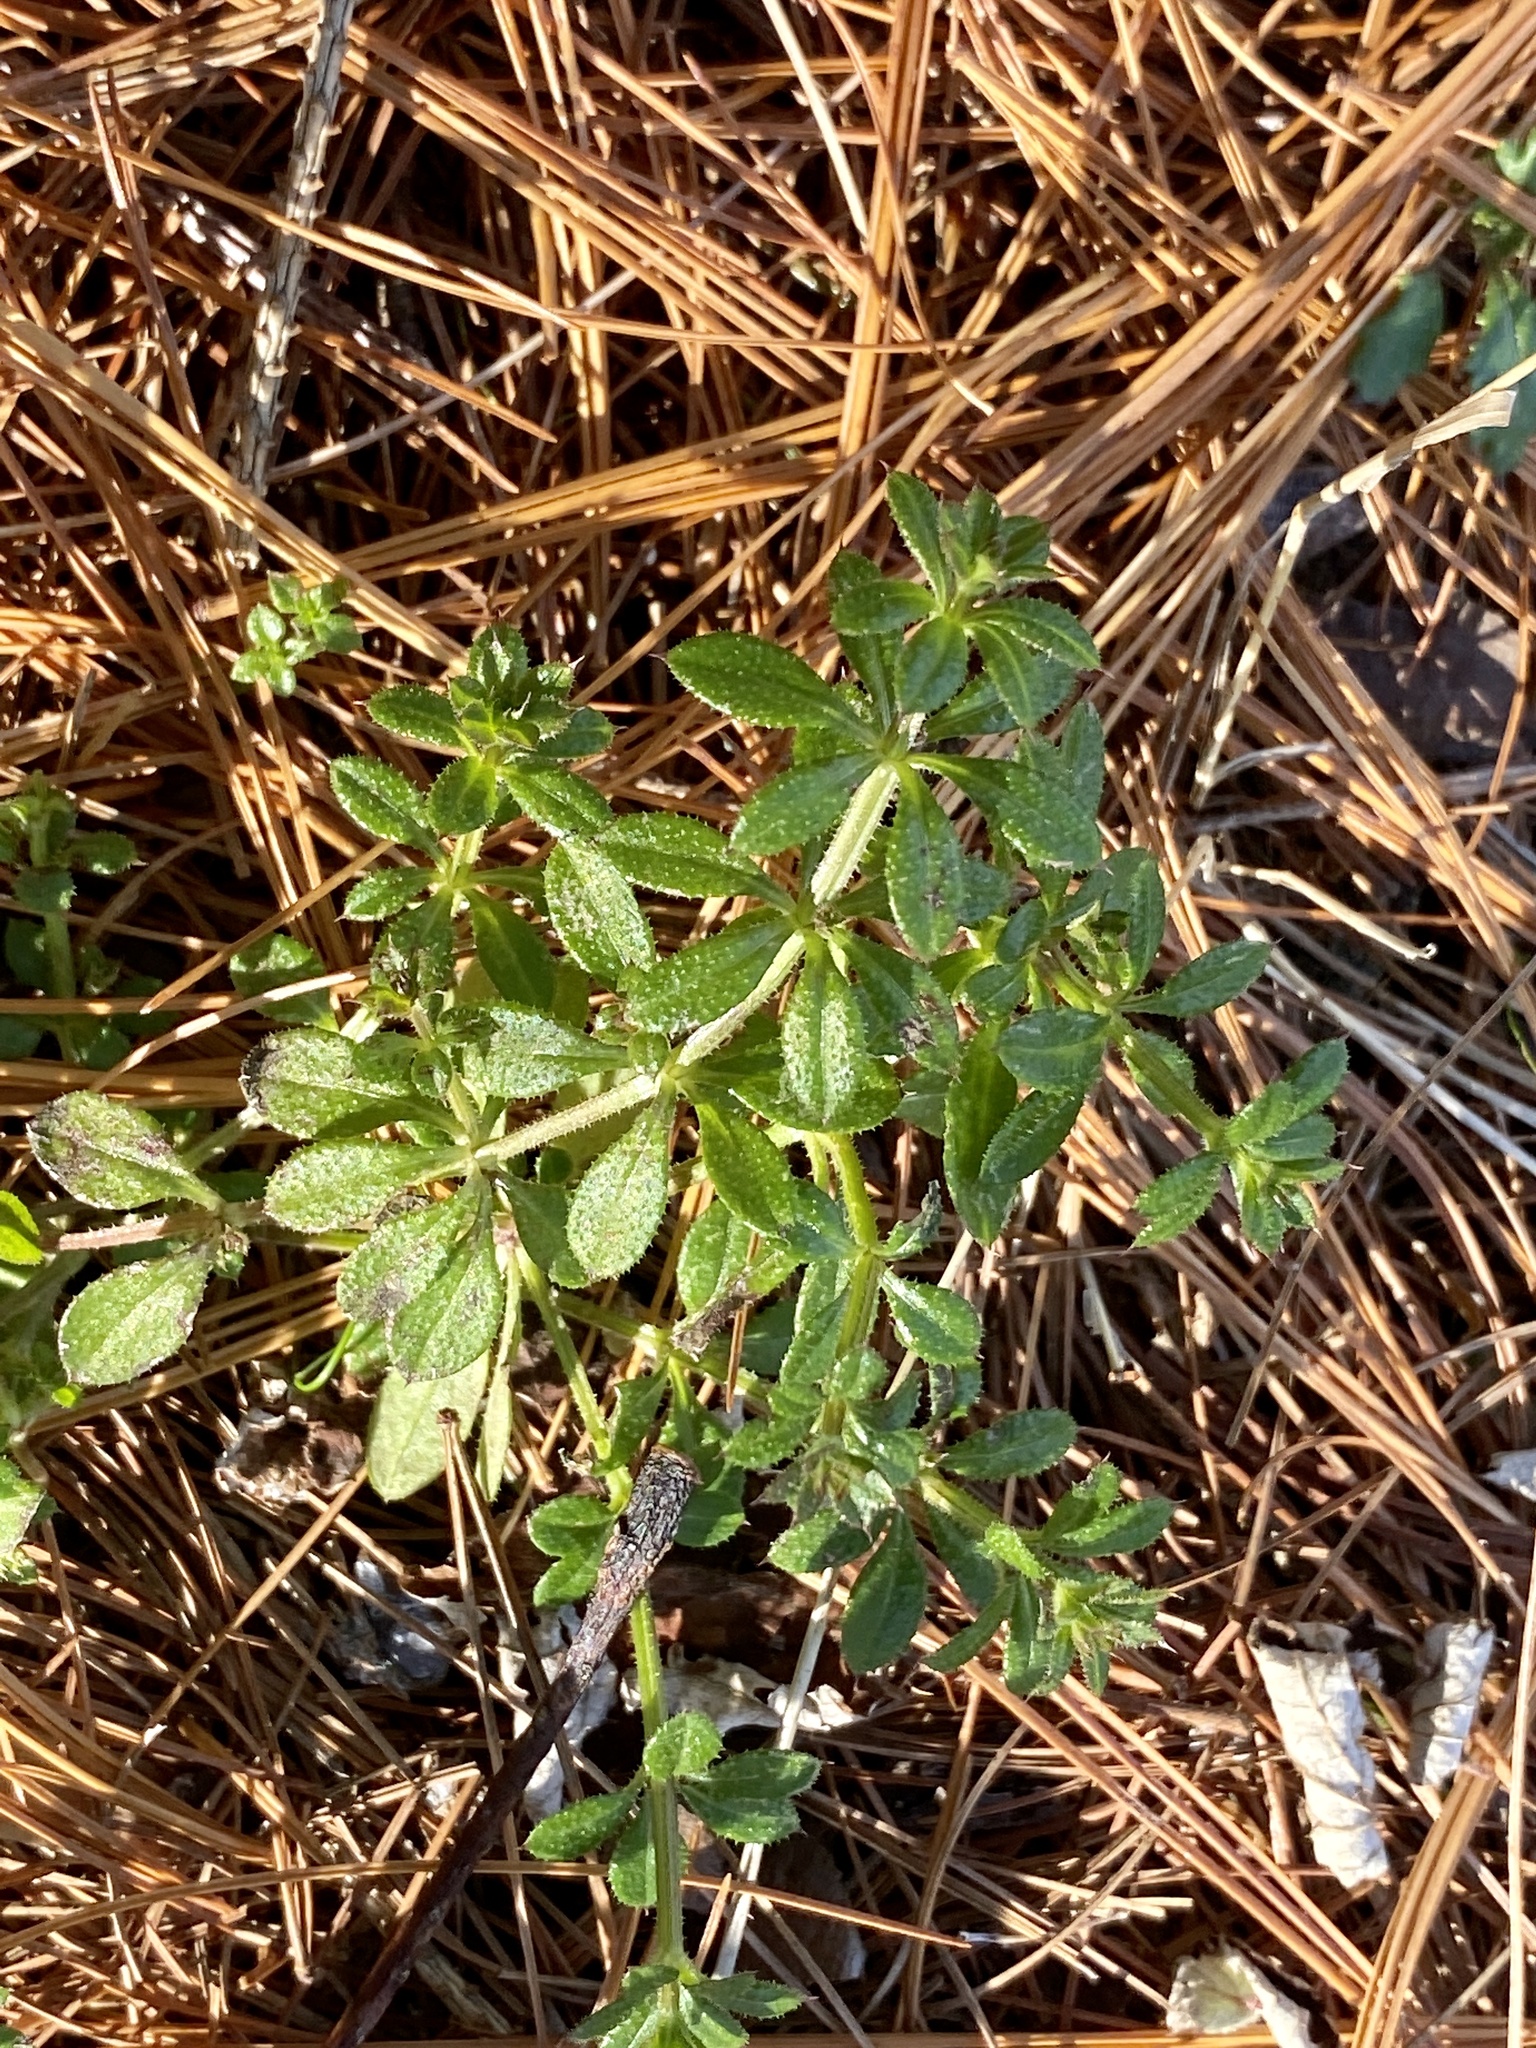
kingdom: Plantae
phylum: Tracheophyta
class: Magnoliopsida
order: Gentianales
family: Rubiaceae
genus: Galium
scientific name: Galium aparine
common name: Cleavers
